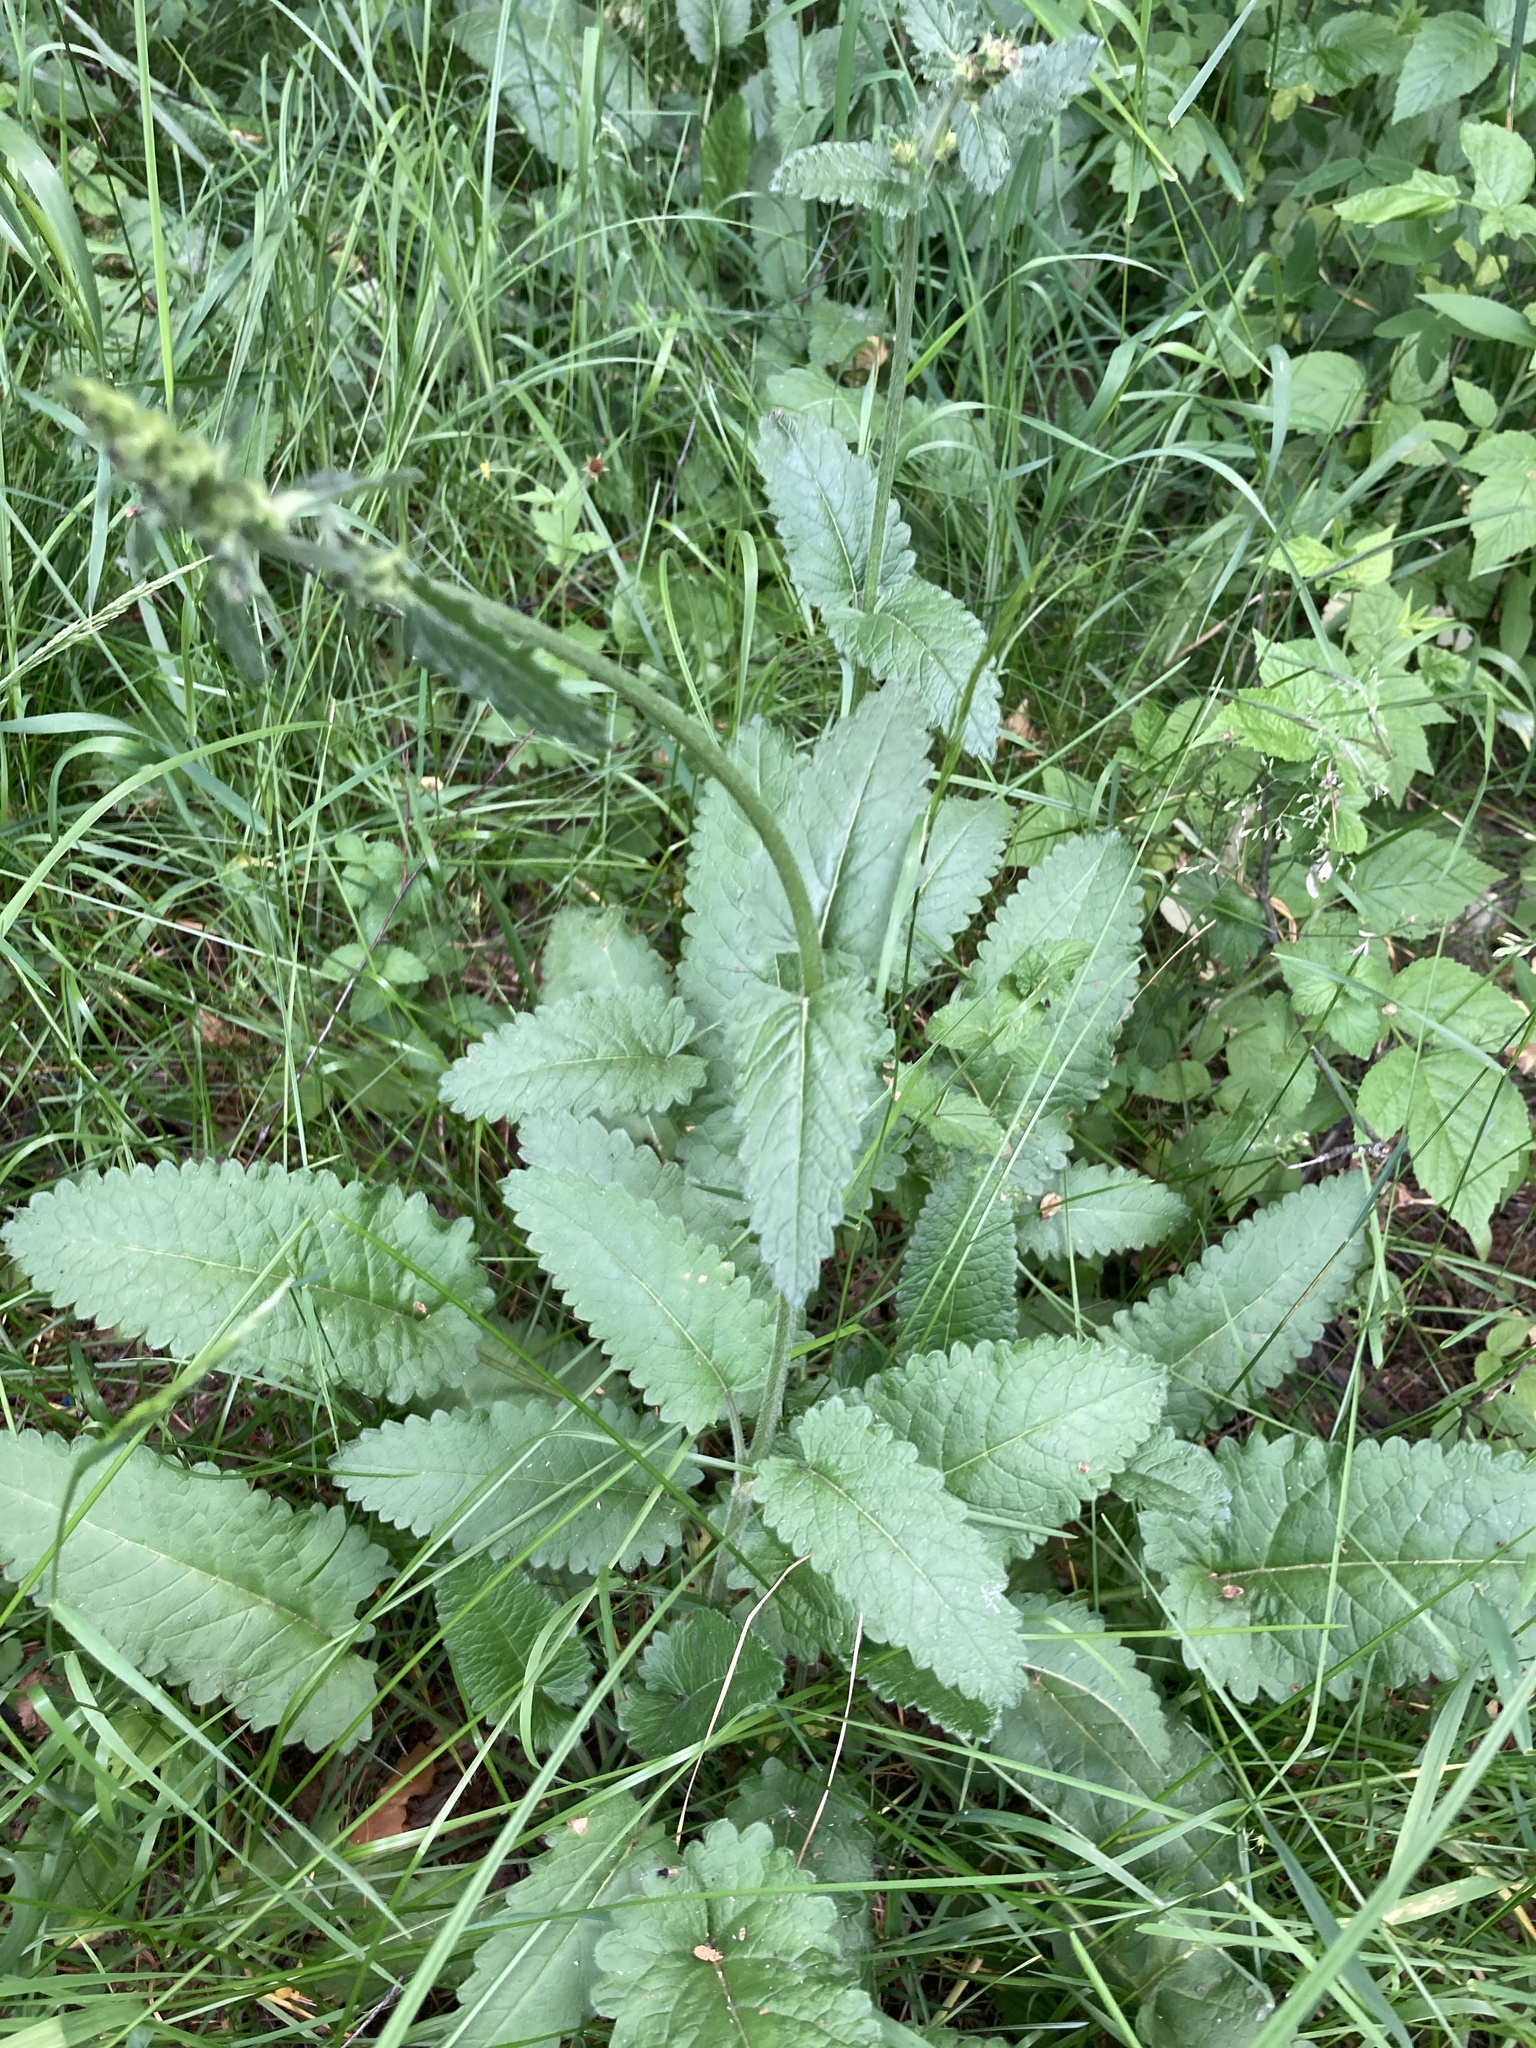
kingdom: Plantae
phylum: Tracheophyta
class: Magnoliopsida
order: Lamiales
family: Lamiaceae
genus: Betonica
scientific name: Betonica officinalis
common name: Bishop's-wort
